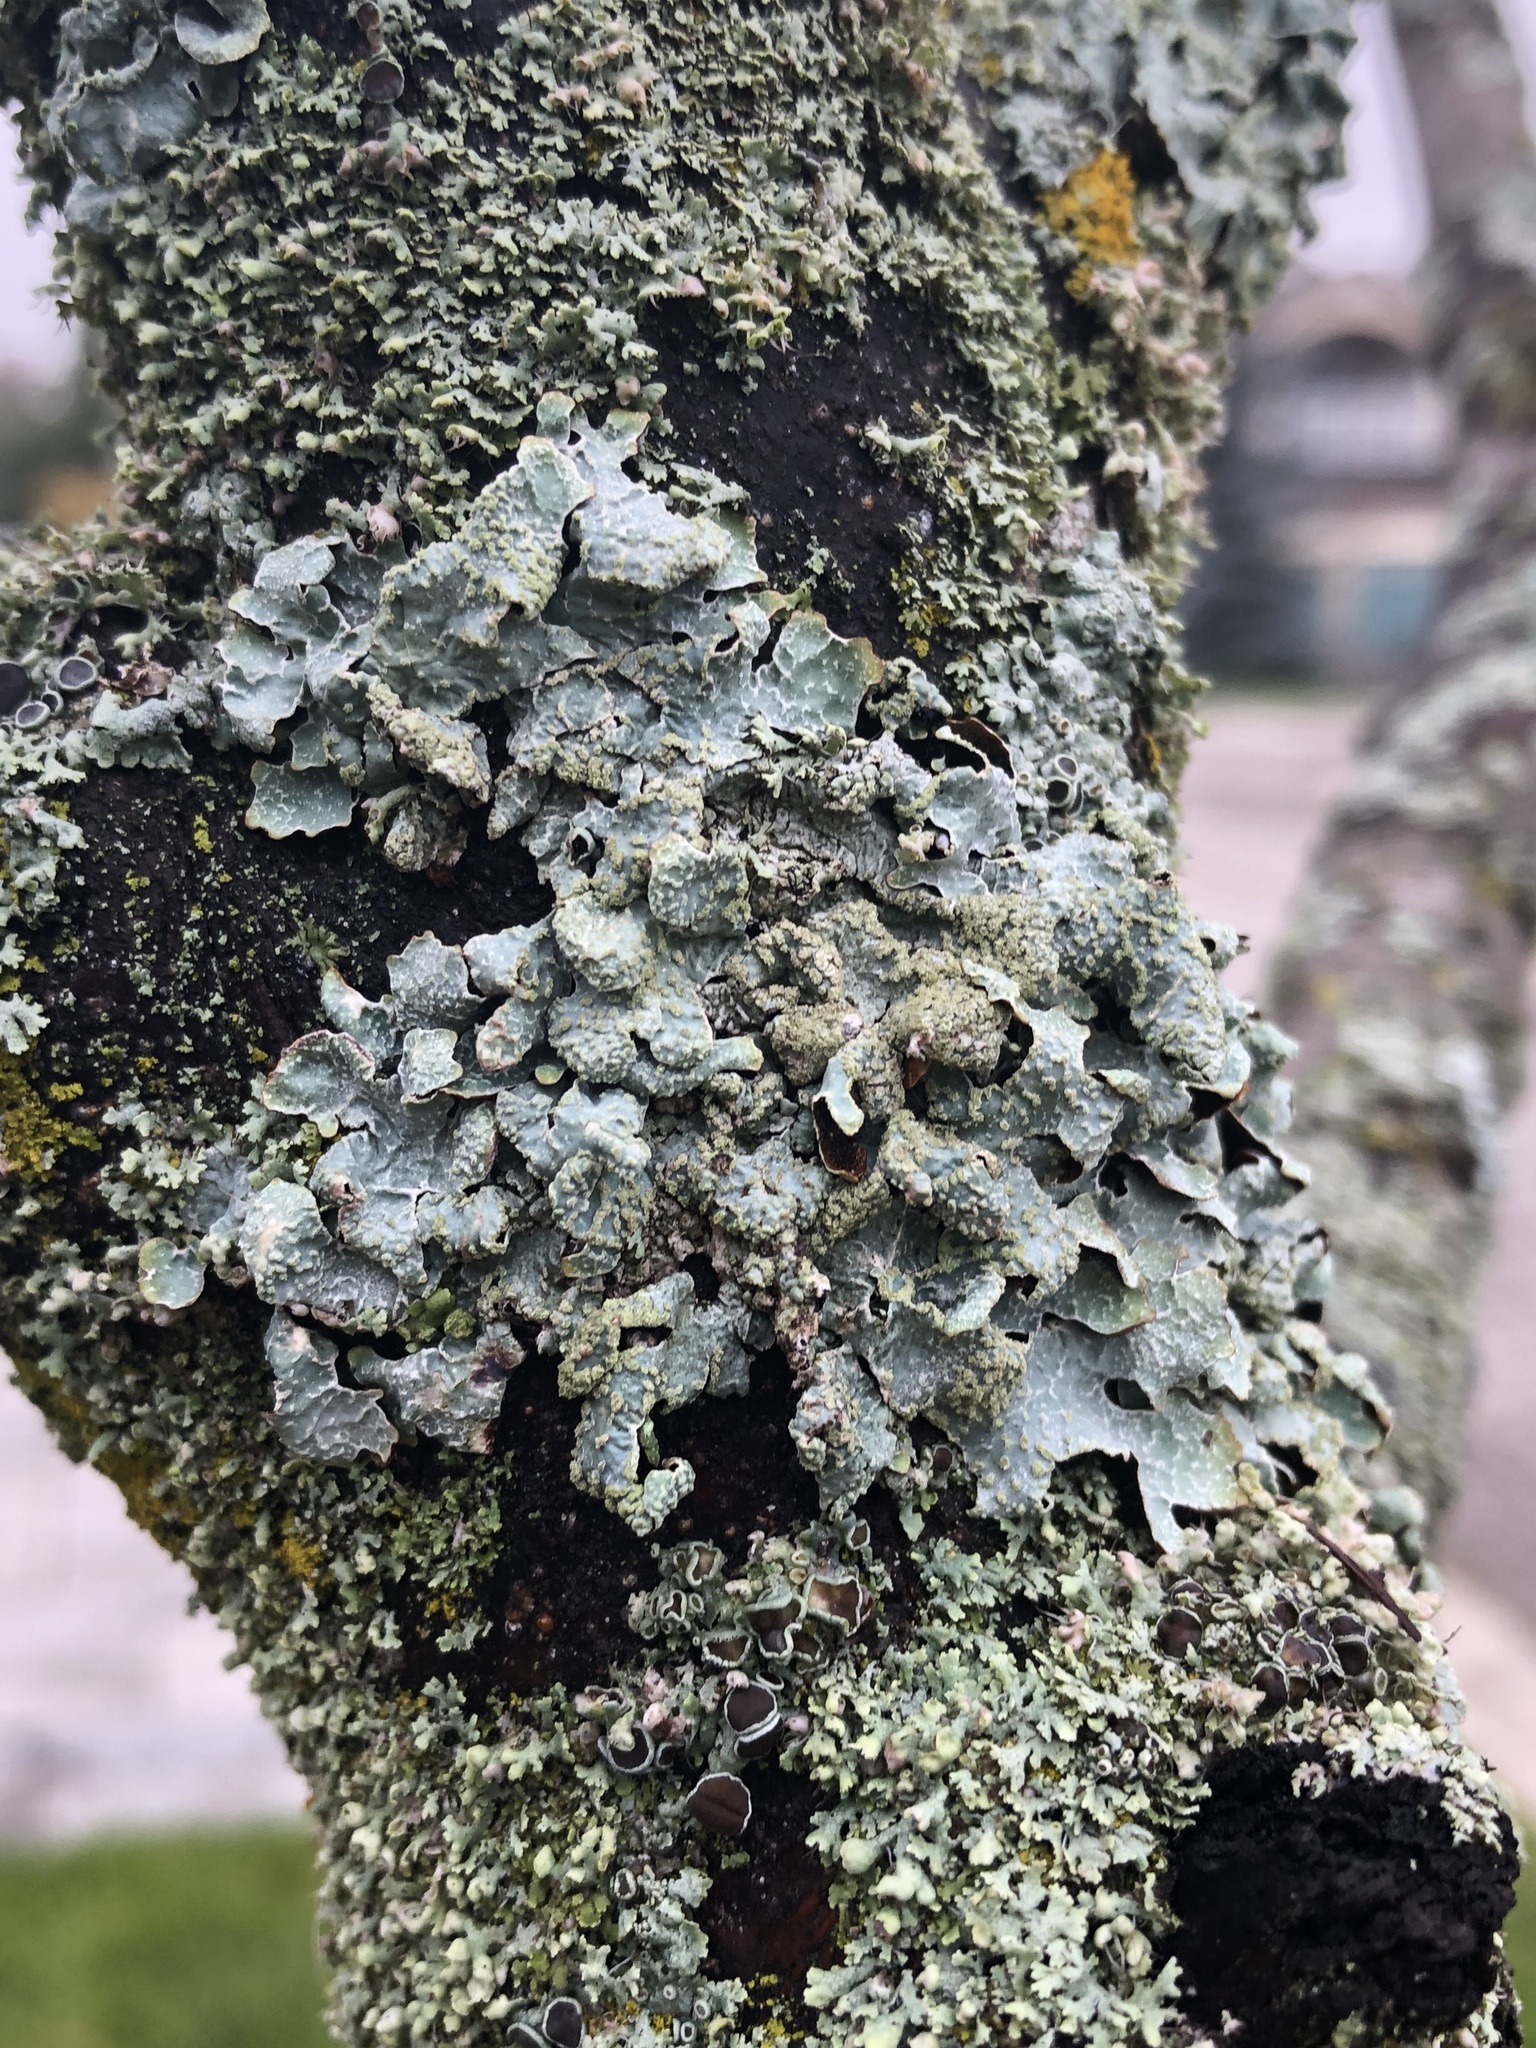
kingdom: Fungi
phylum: Ascomycota
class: Lecanoromycetes
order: Lecanorales
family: Parmeliaceae
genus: Parmelia
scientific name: Parmelia sulcata
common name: Netted shield lichen
